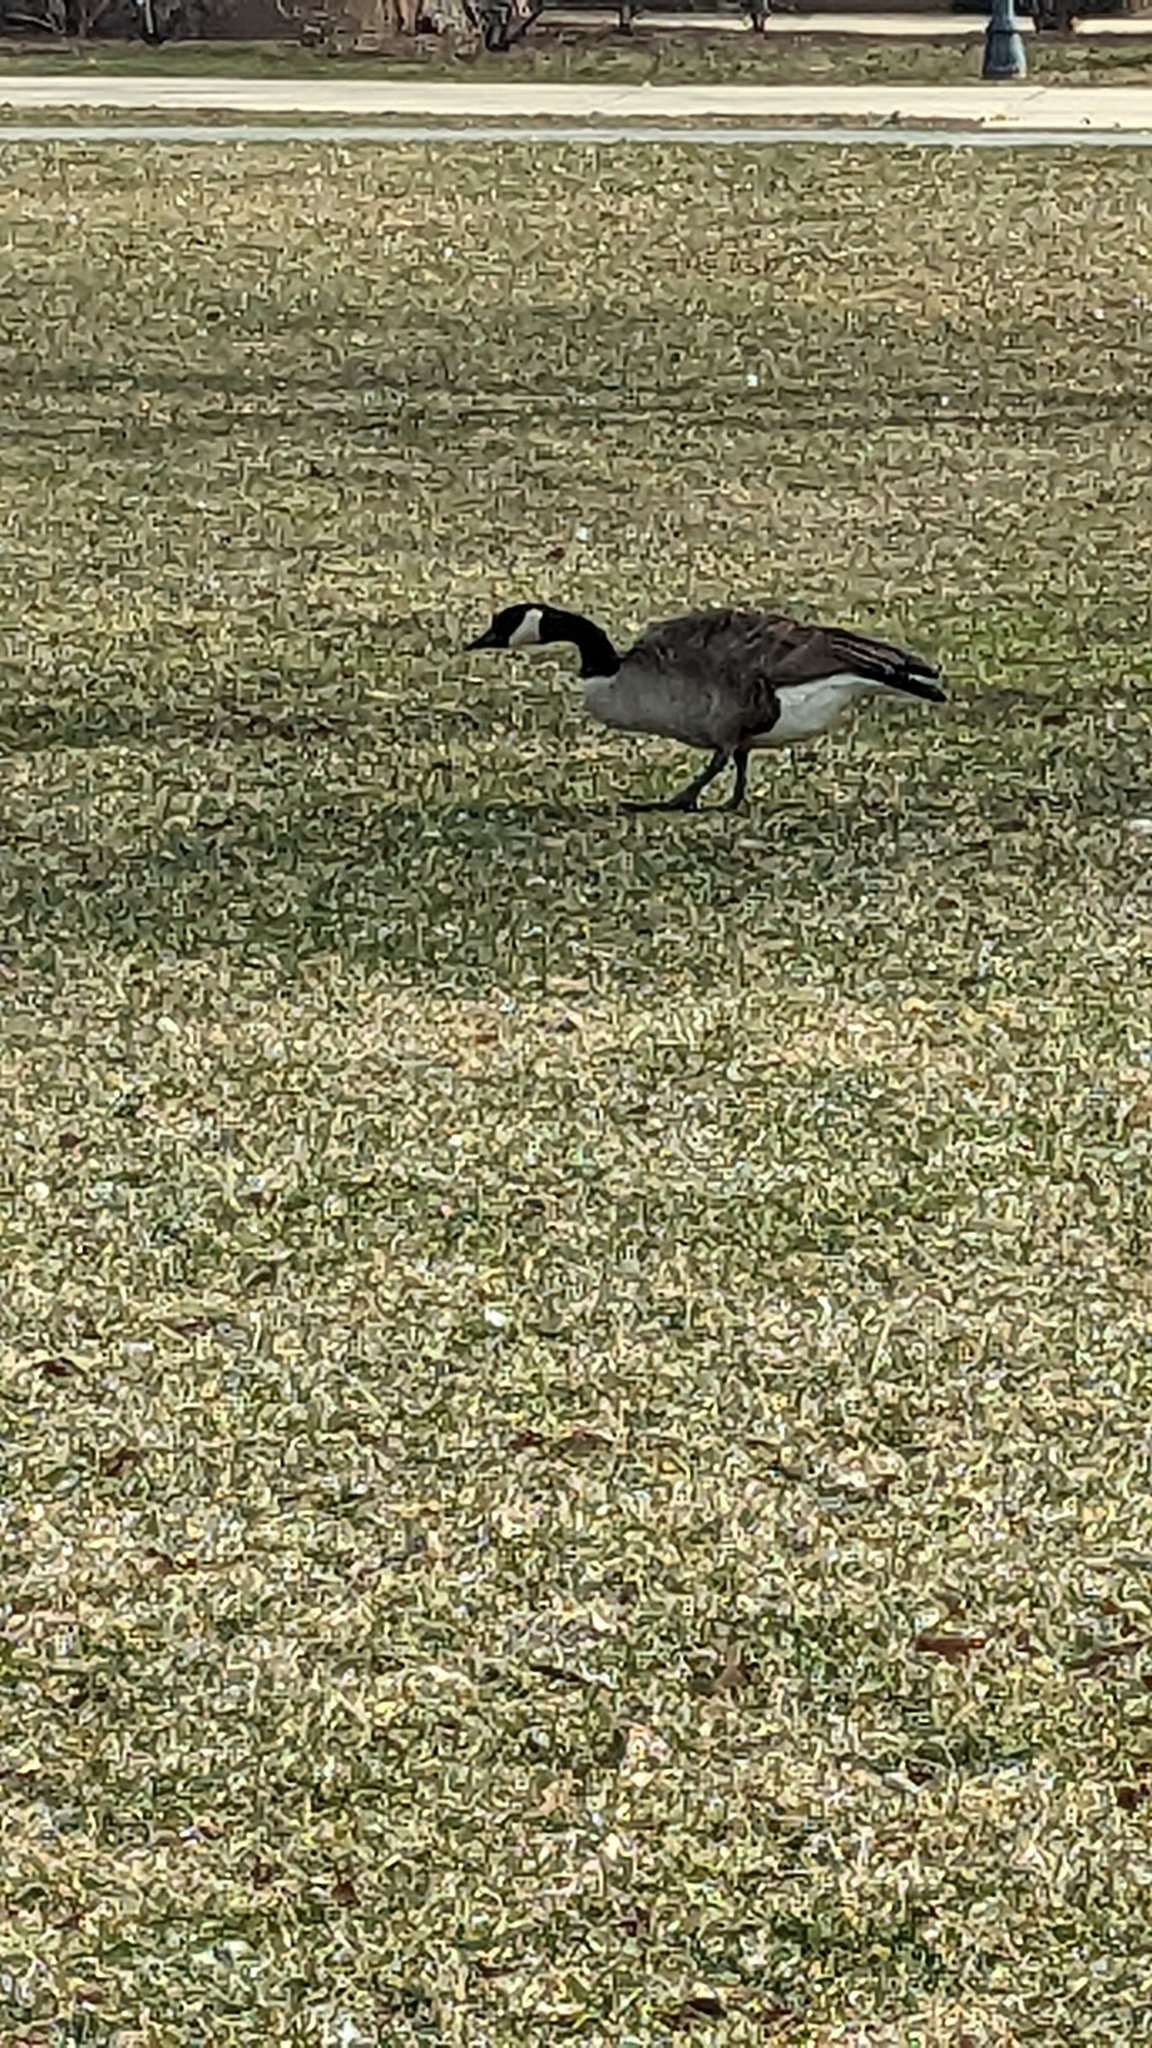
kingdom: Animalia
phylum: Chordata
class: Aves
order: Anseriformes
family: Anatidae
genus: Branta
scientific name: Branta canadensis
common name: Canada goose
